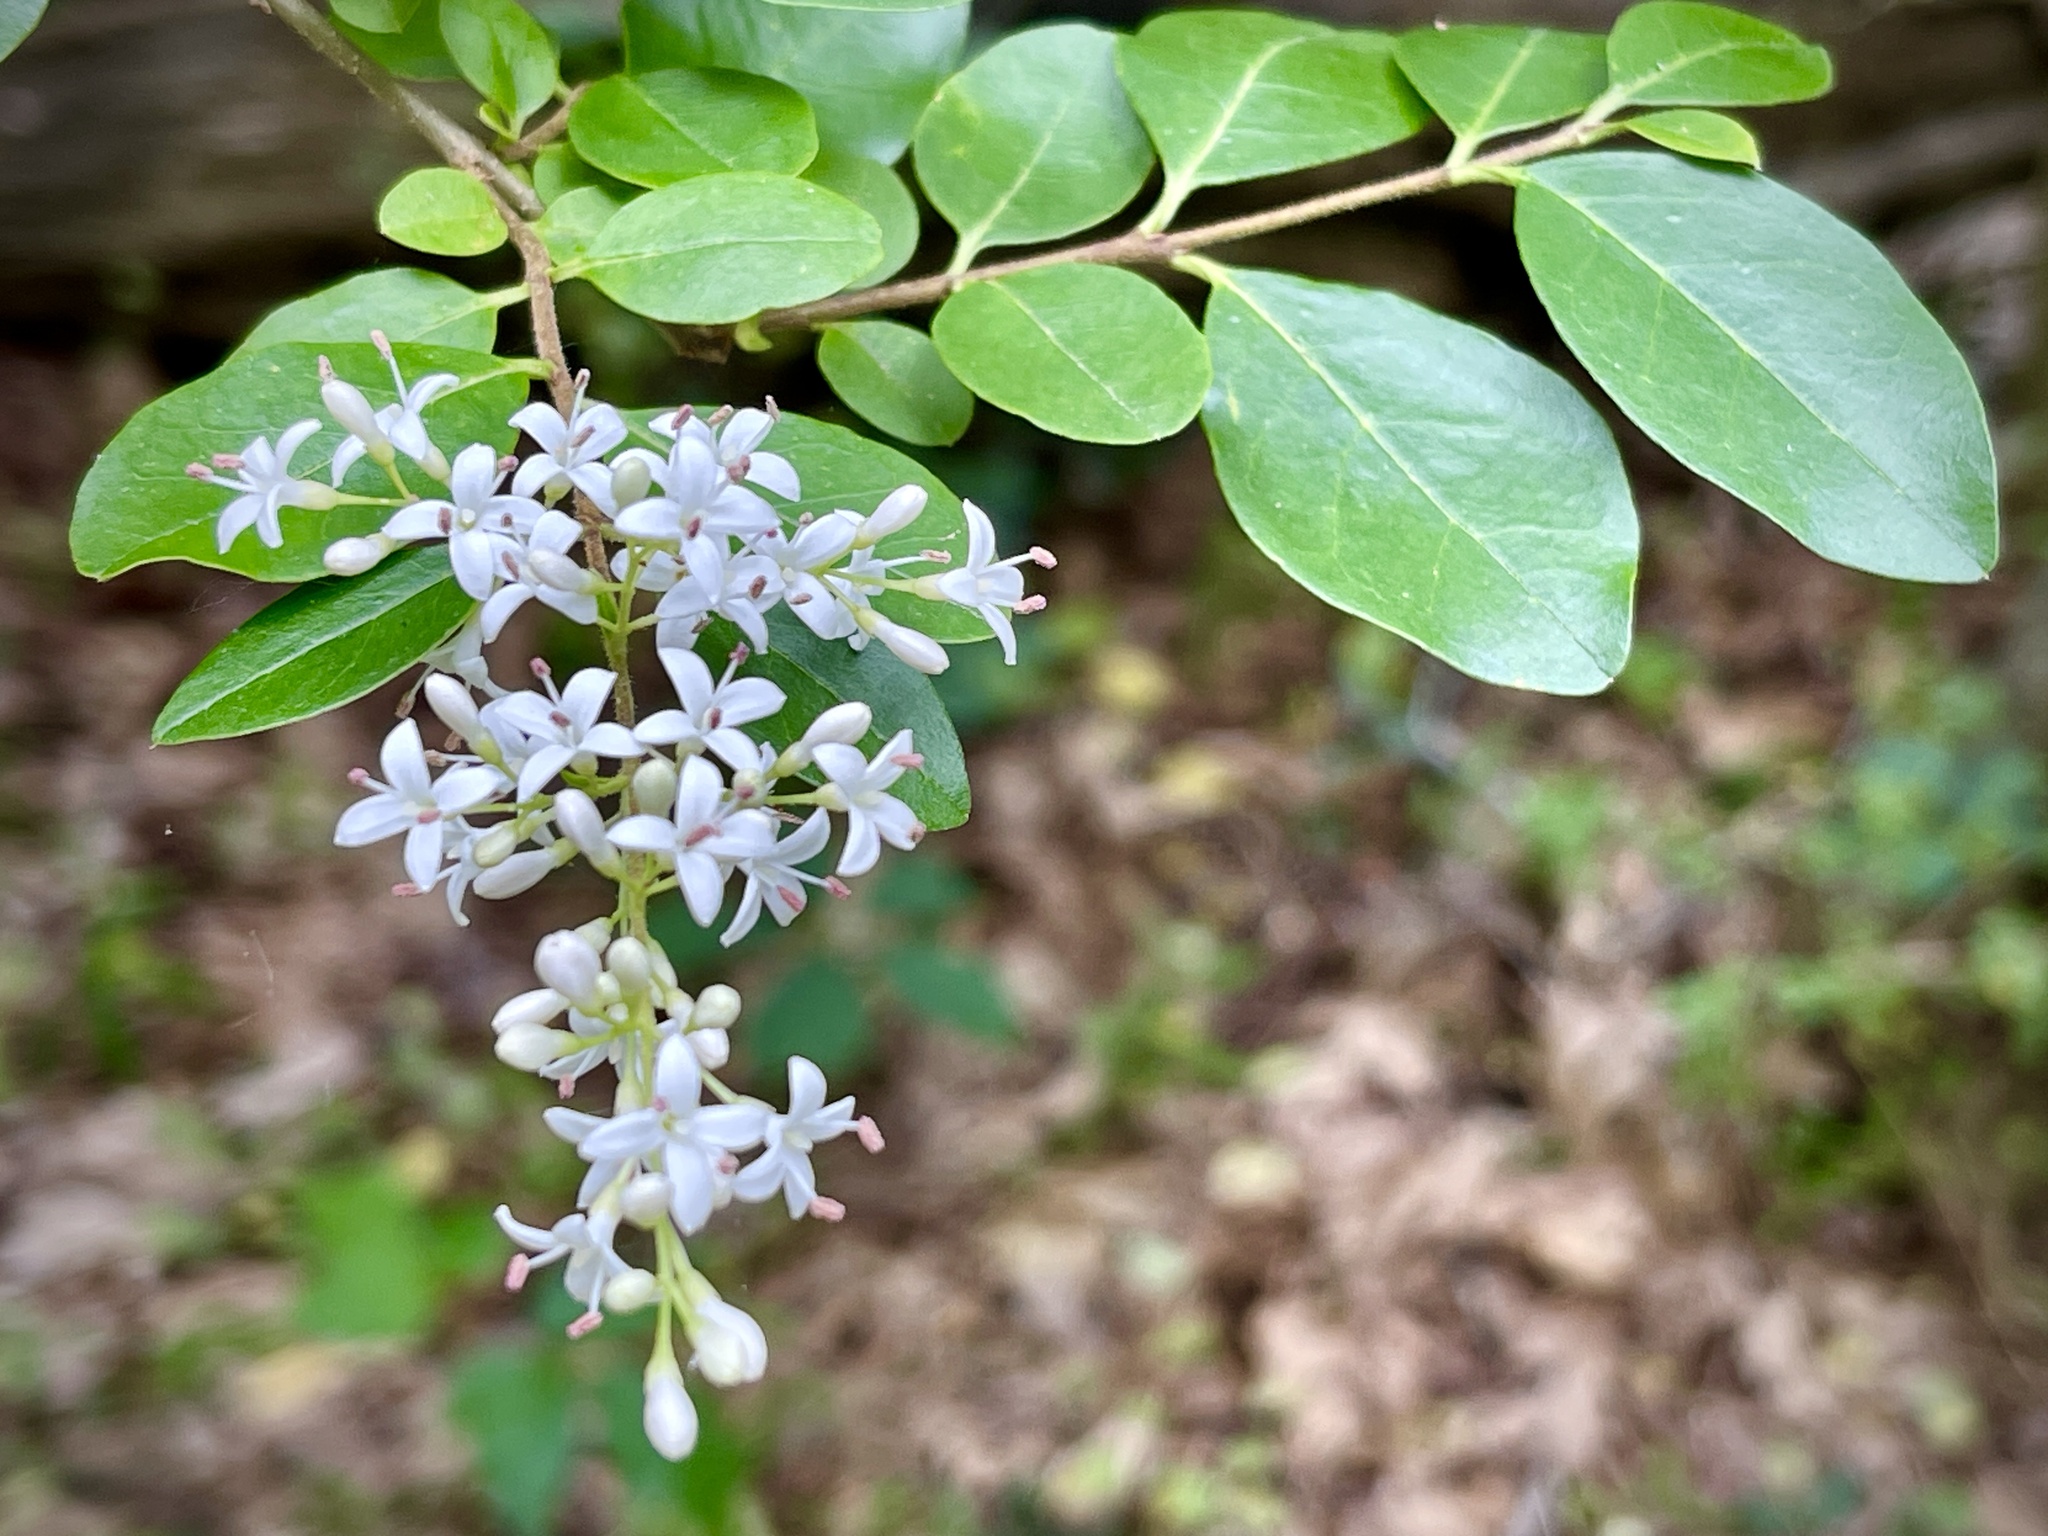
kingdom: Plantae
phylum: Tracheophyta
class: Magnoliopsida
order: Lamiales
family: Oleaceae
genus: Ligustrum
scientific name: Ligustrum sinense
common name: Chinese privet
